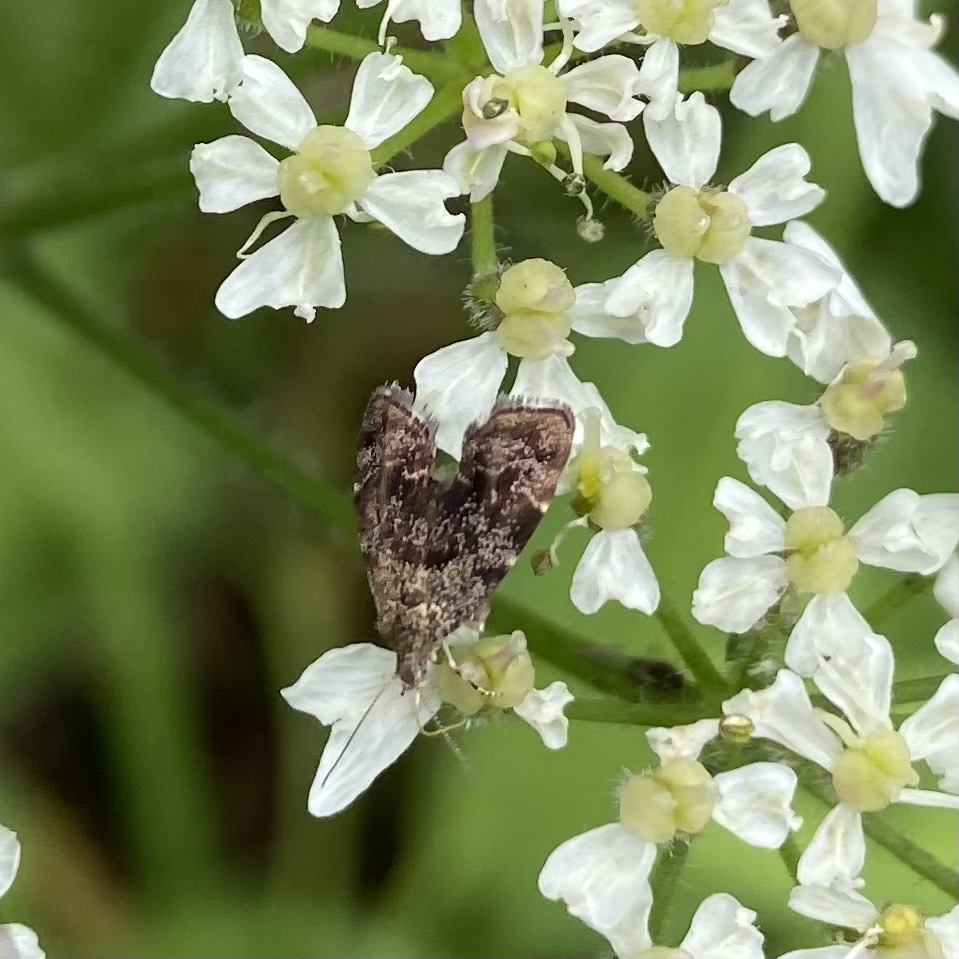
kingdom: Animalia
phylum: Arthropoda
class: Insecta
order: Lepidoptera
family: Choreutidae
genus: Anthophila
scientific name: Anthophila fabriciana
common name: Nettle-tap
